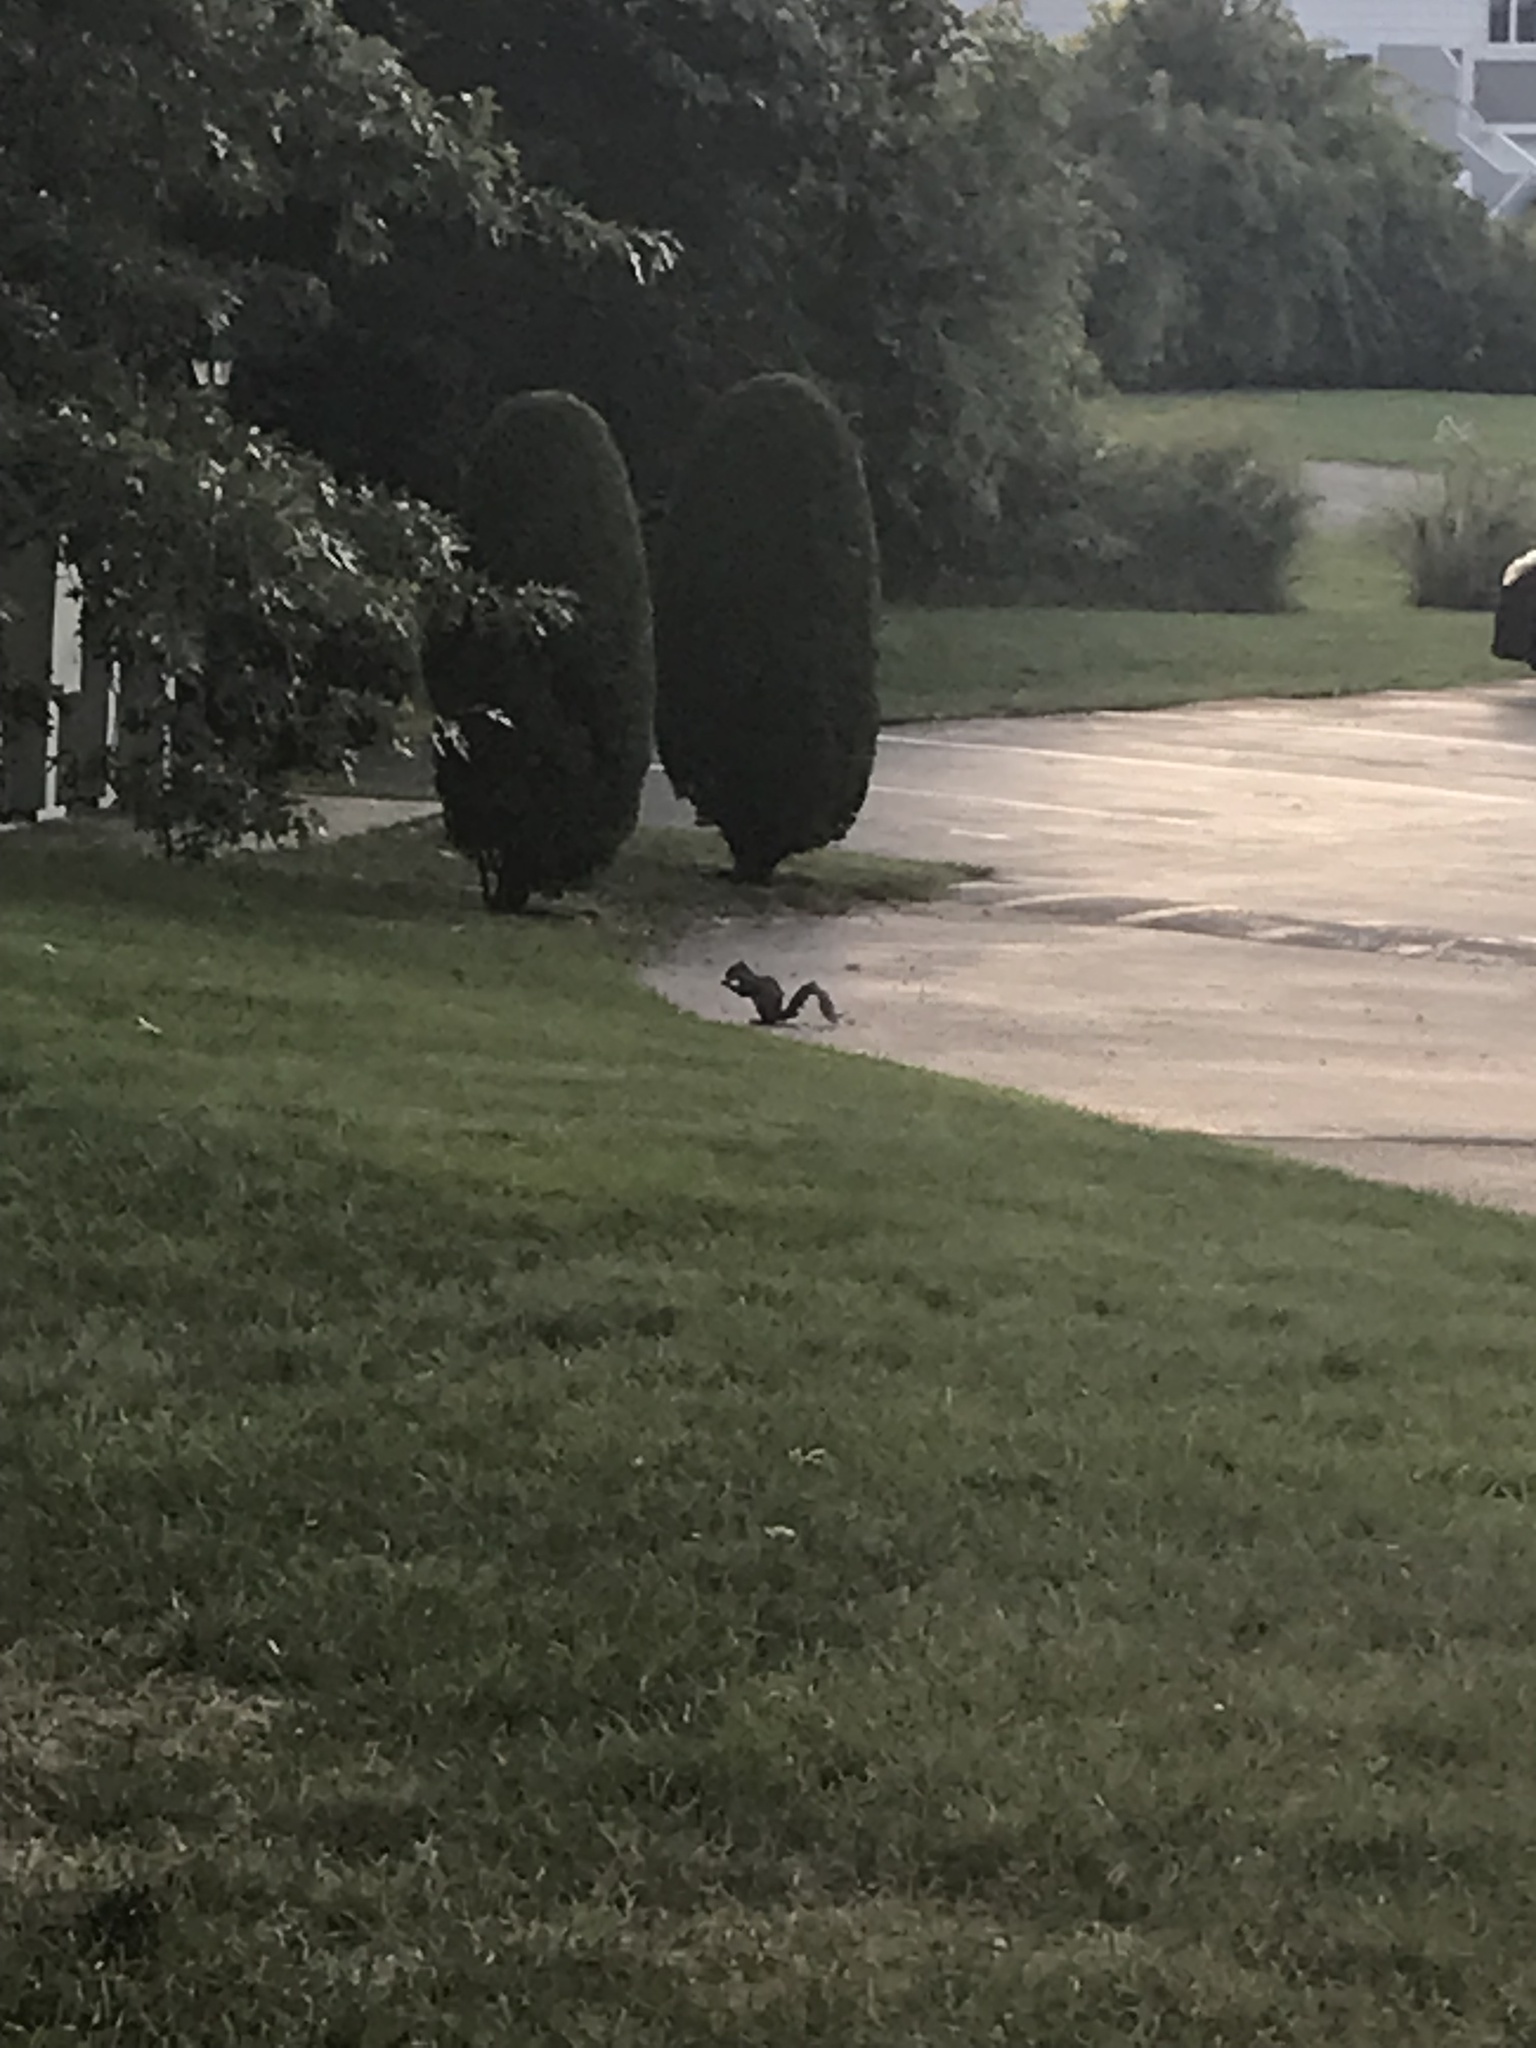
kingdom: Animalia
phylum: Chordata
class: Mammalia
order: Rodentia
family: Sciuridae
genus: Sciurus
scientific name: Sciurus carolinensis
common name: Eastern gray squirrel
